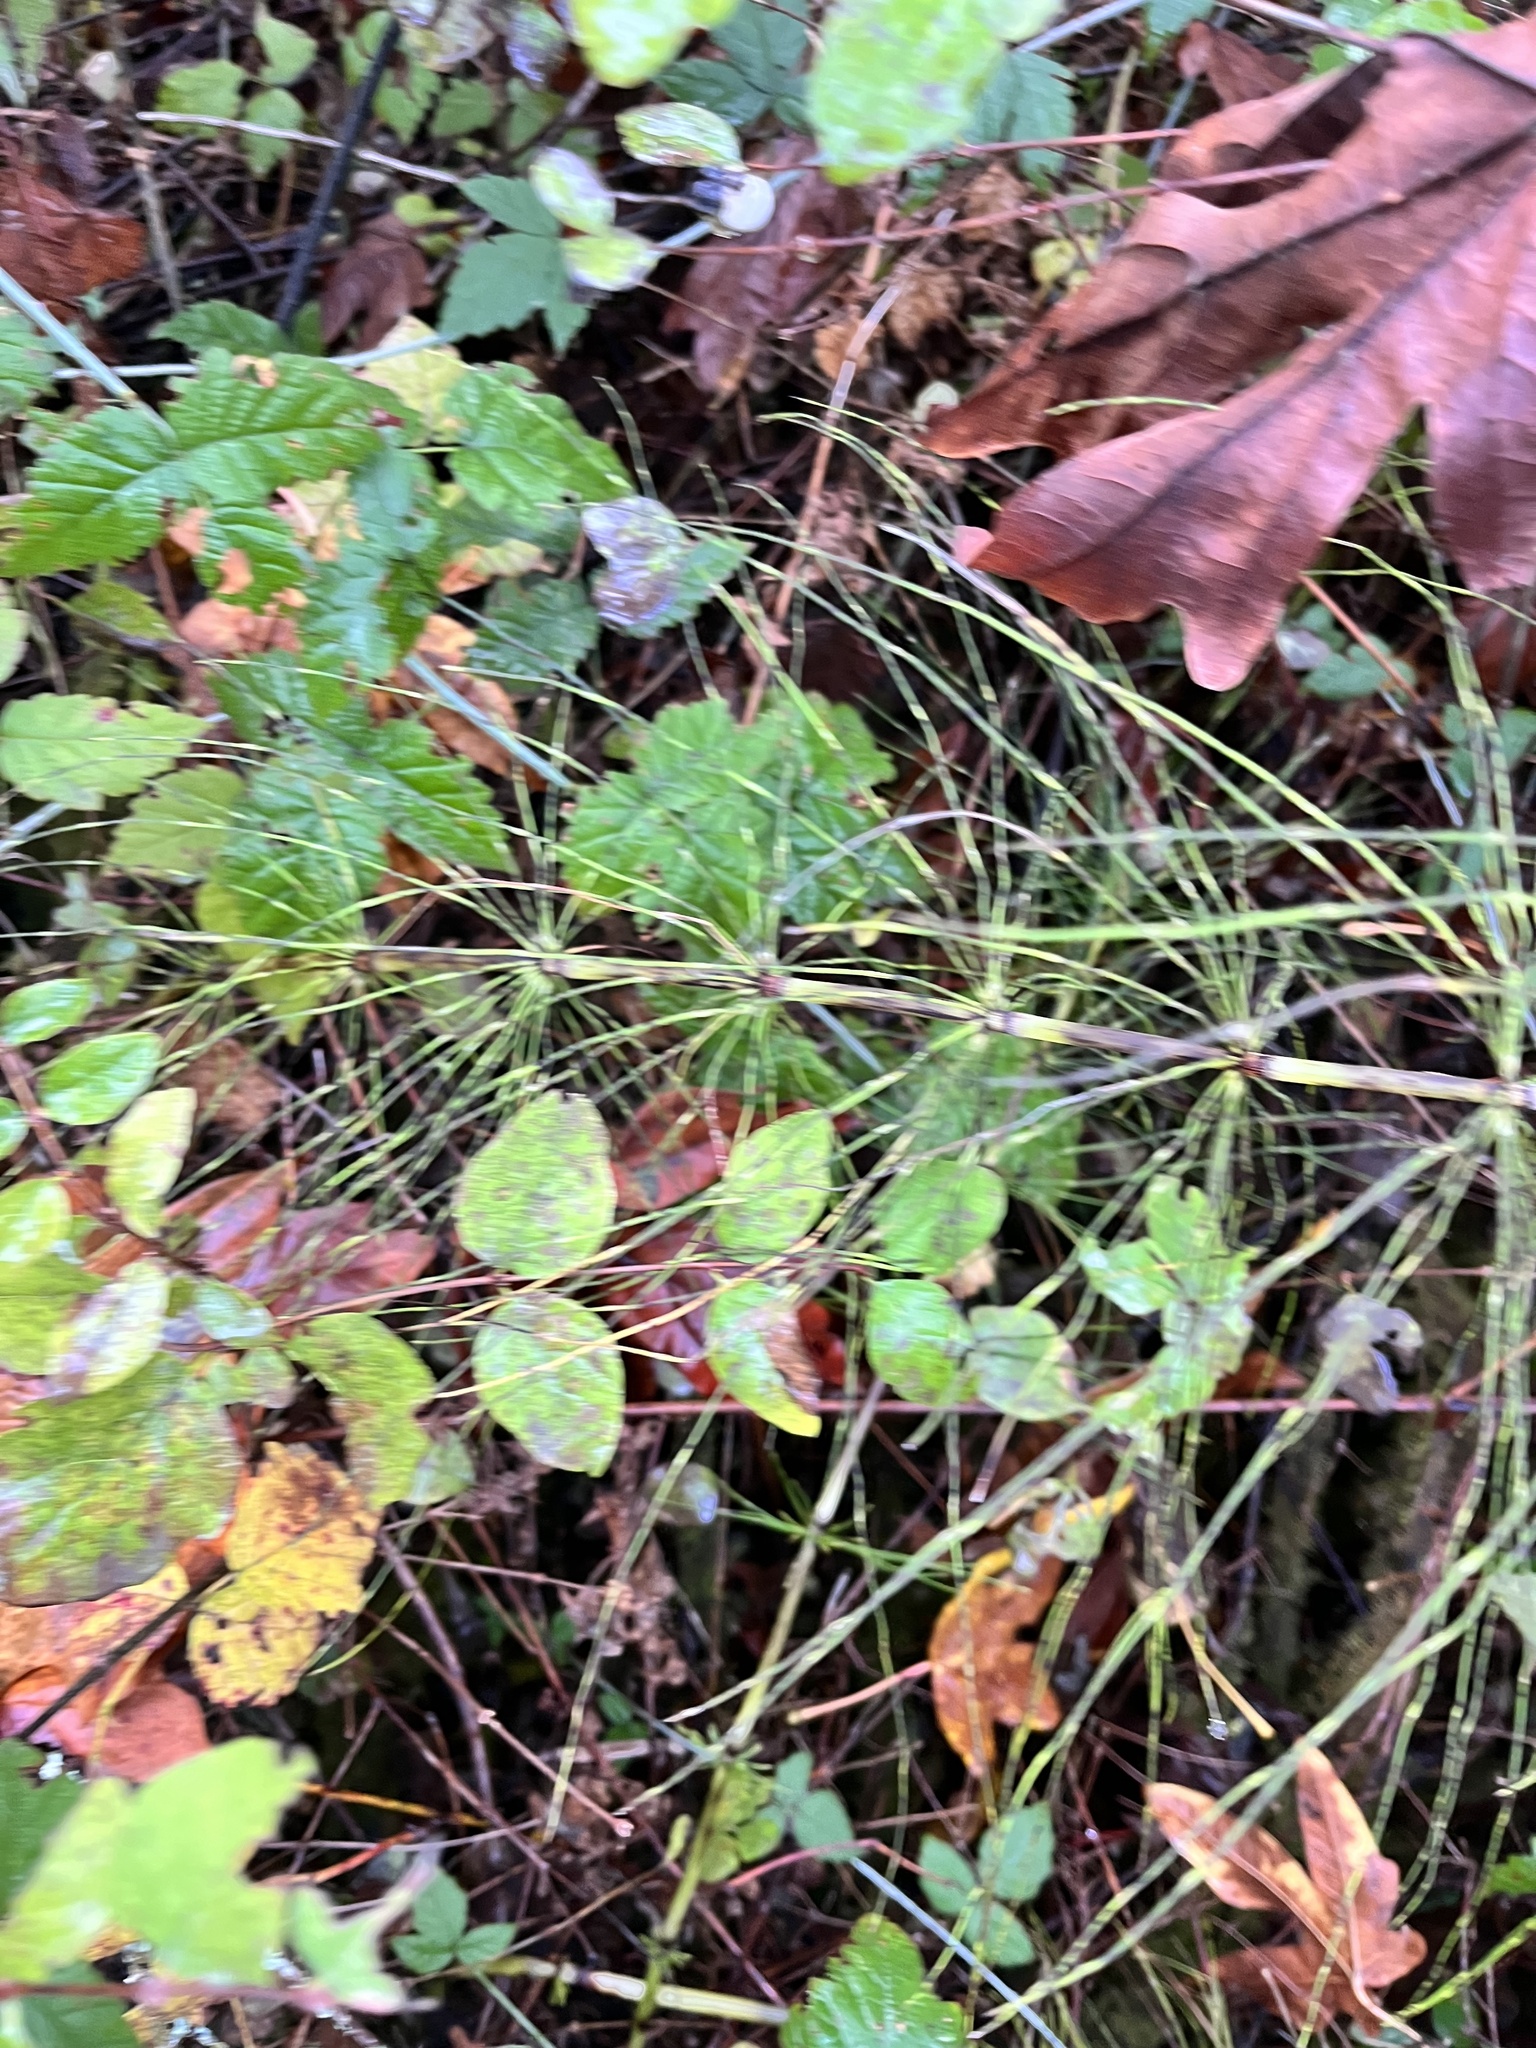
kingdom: Plantae
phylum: Tracheophyta
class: Polypodiopsida
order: Equisetales
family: Equisetaceae
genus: Equisetum
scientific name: Equisetum braunii
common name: Braun's horsetail
